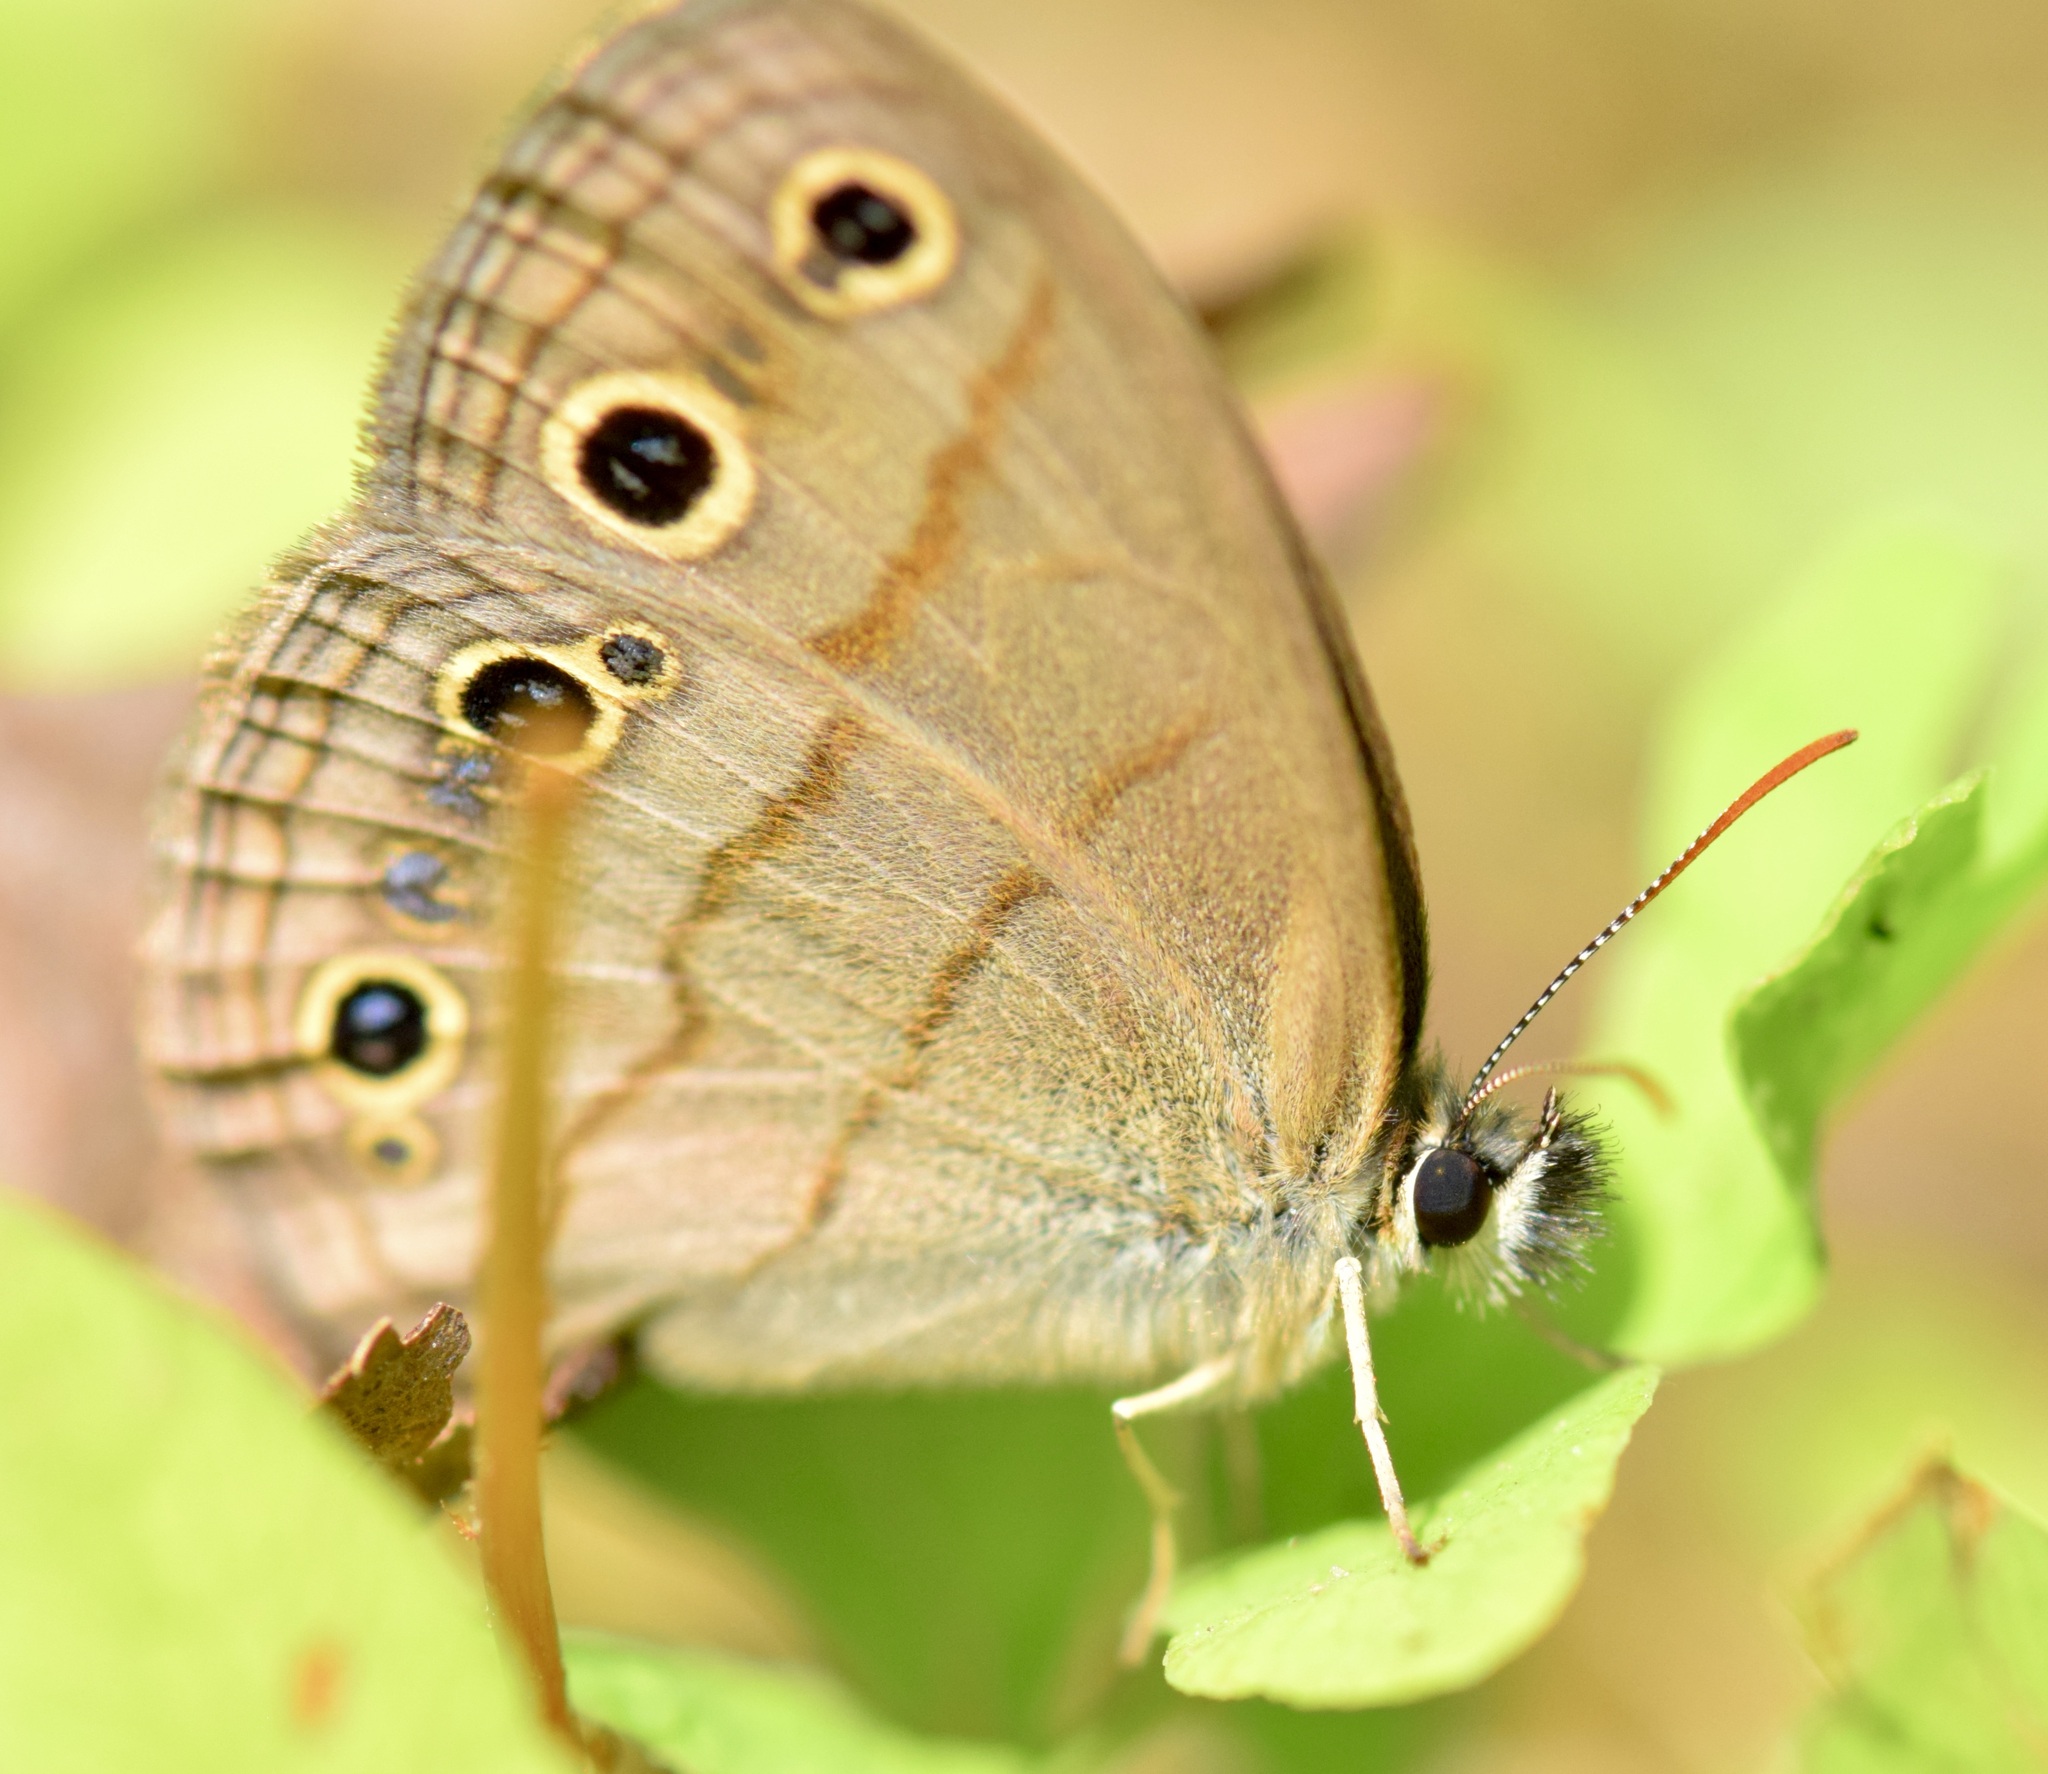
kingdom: Animalia
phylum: Arthropoda
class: Insecta
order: Lepidoptera
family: Nymphalidae
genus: Euptychia
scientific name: Euptychia cymela
